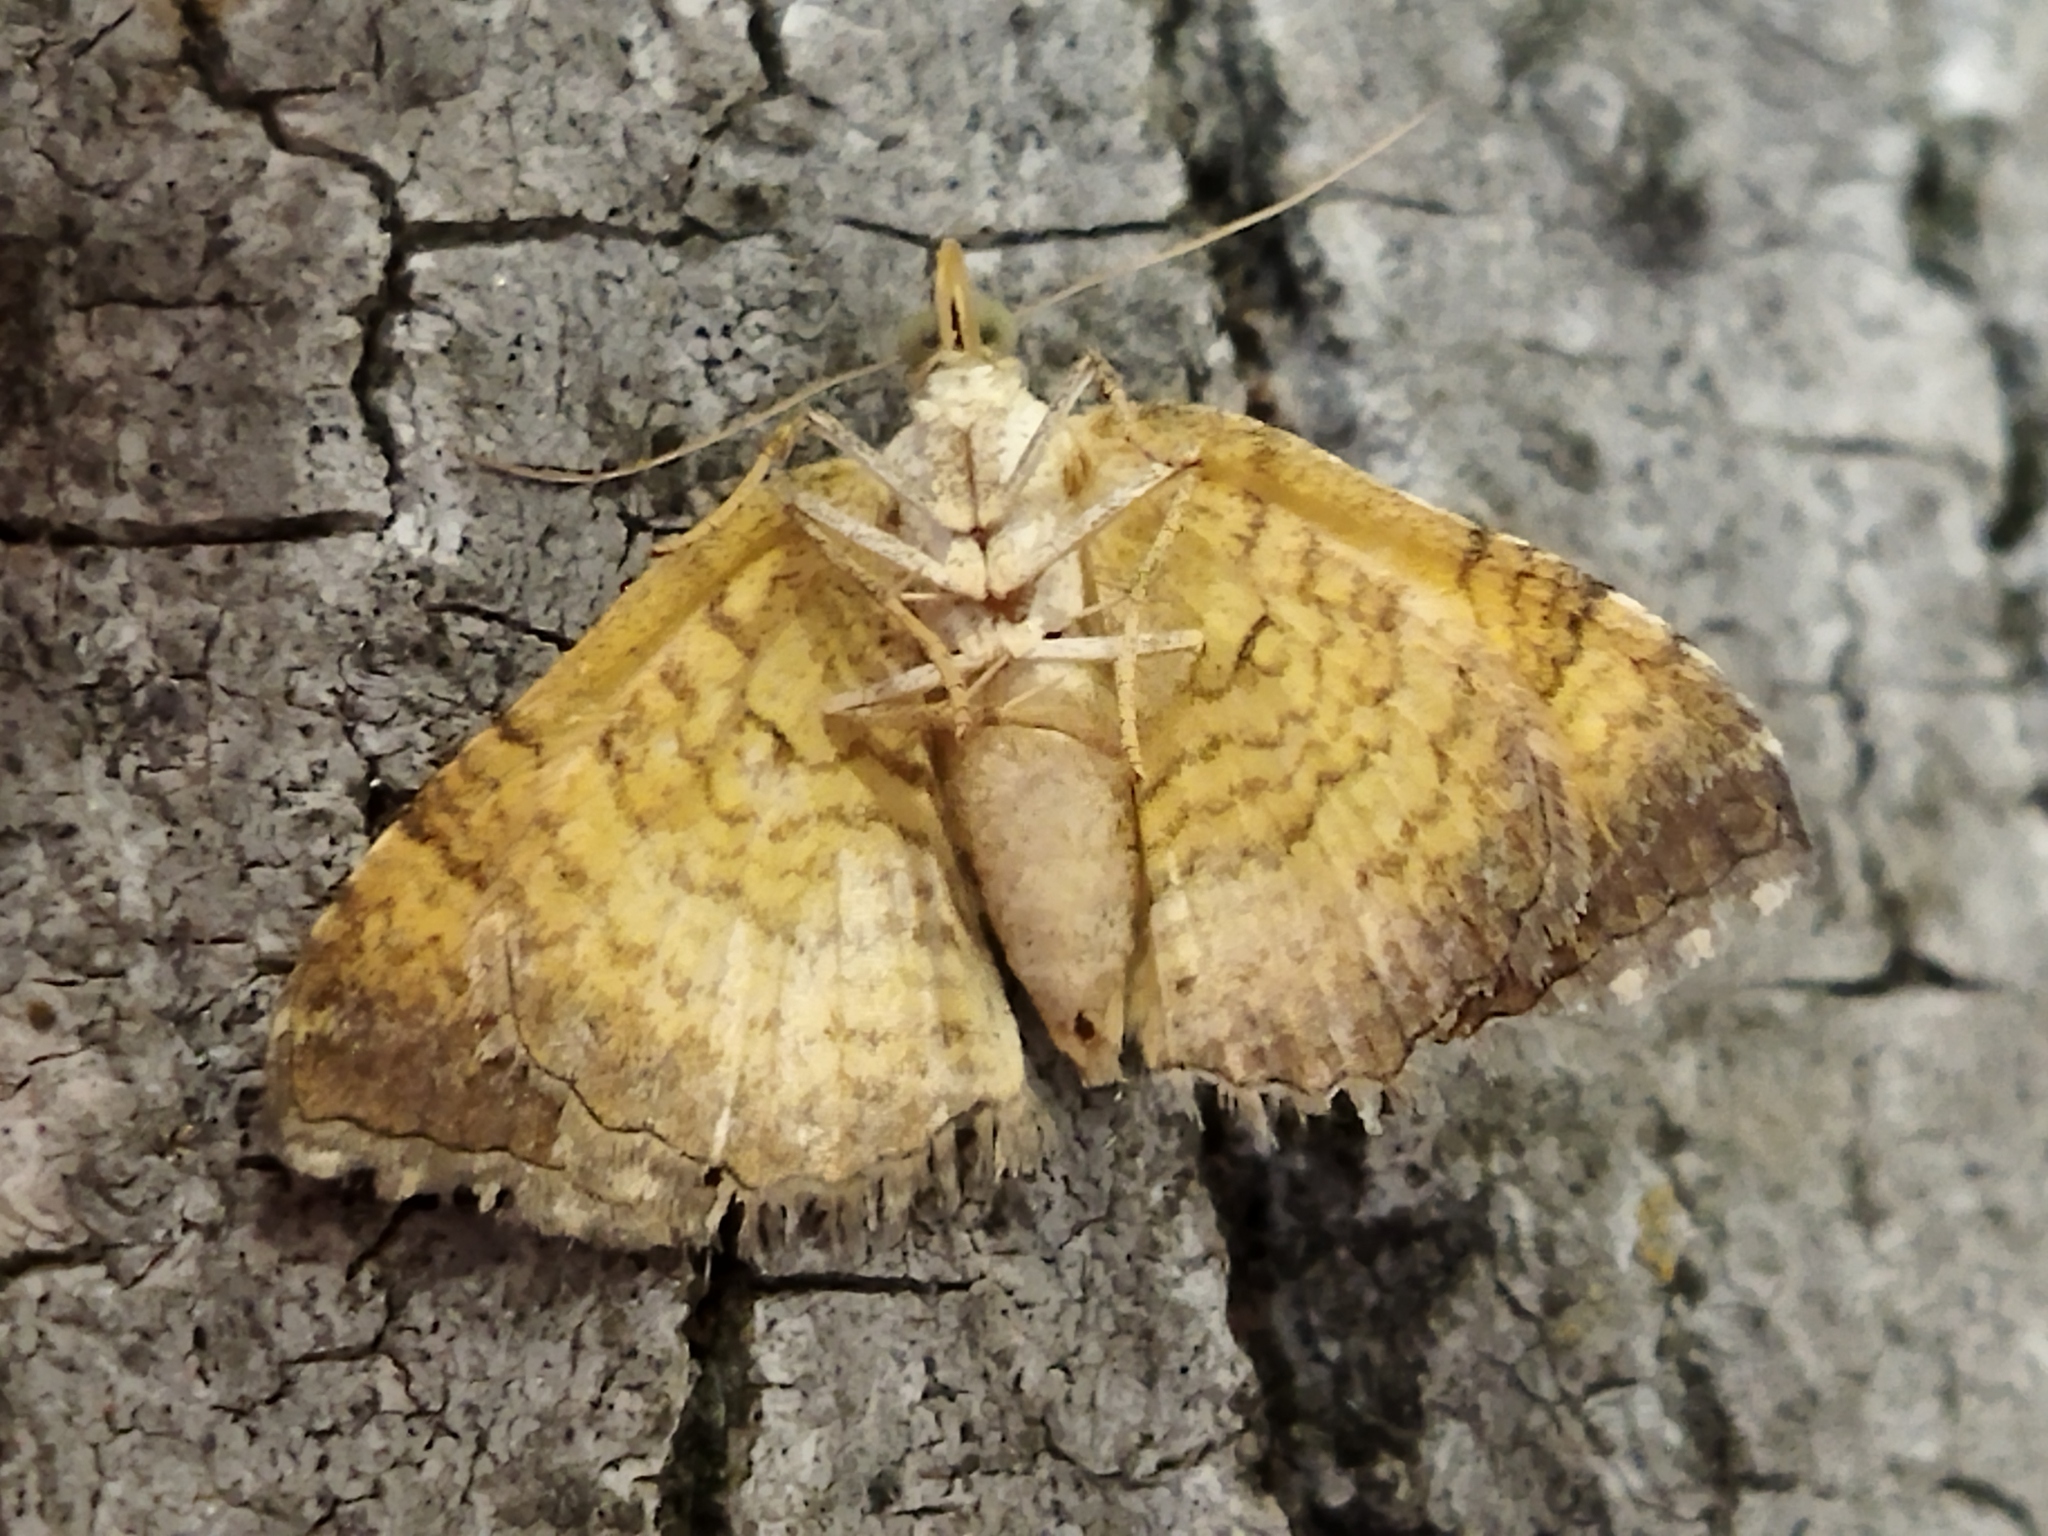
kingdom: Animalia
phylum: Arthropoda
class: Insecta
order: Lepidoptera
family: Geometridae
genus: Camptogramma
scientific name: Camptogramma bilineata
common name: Yellow shell
